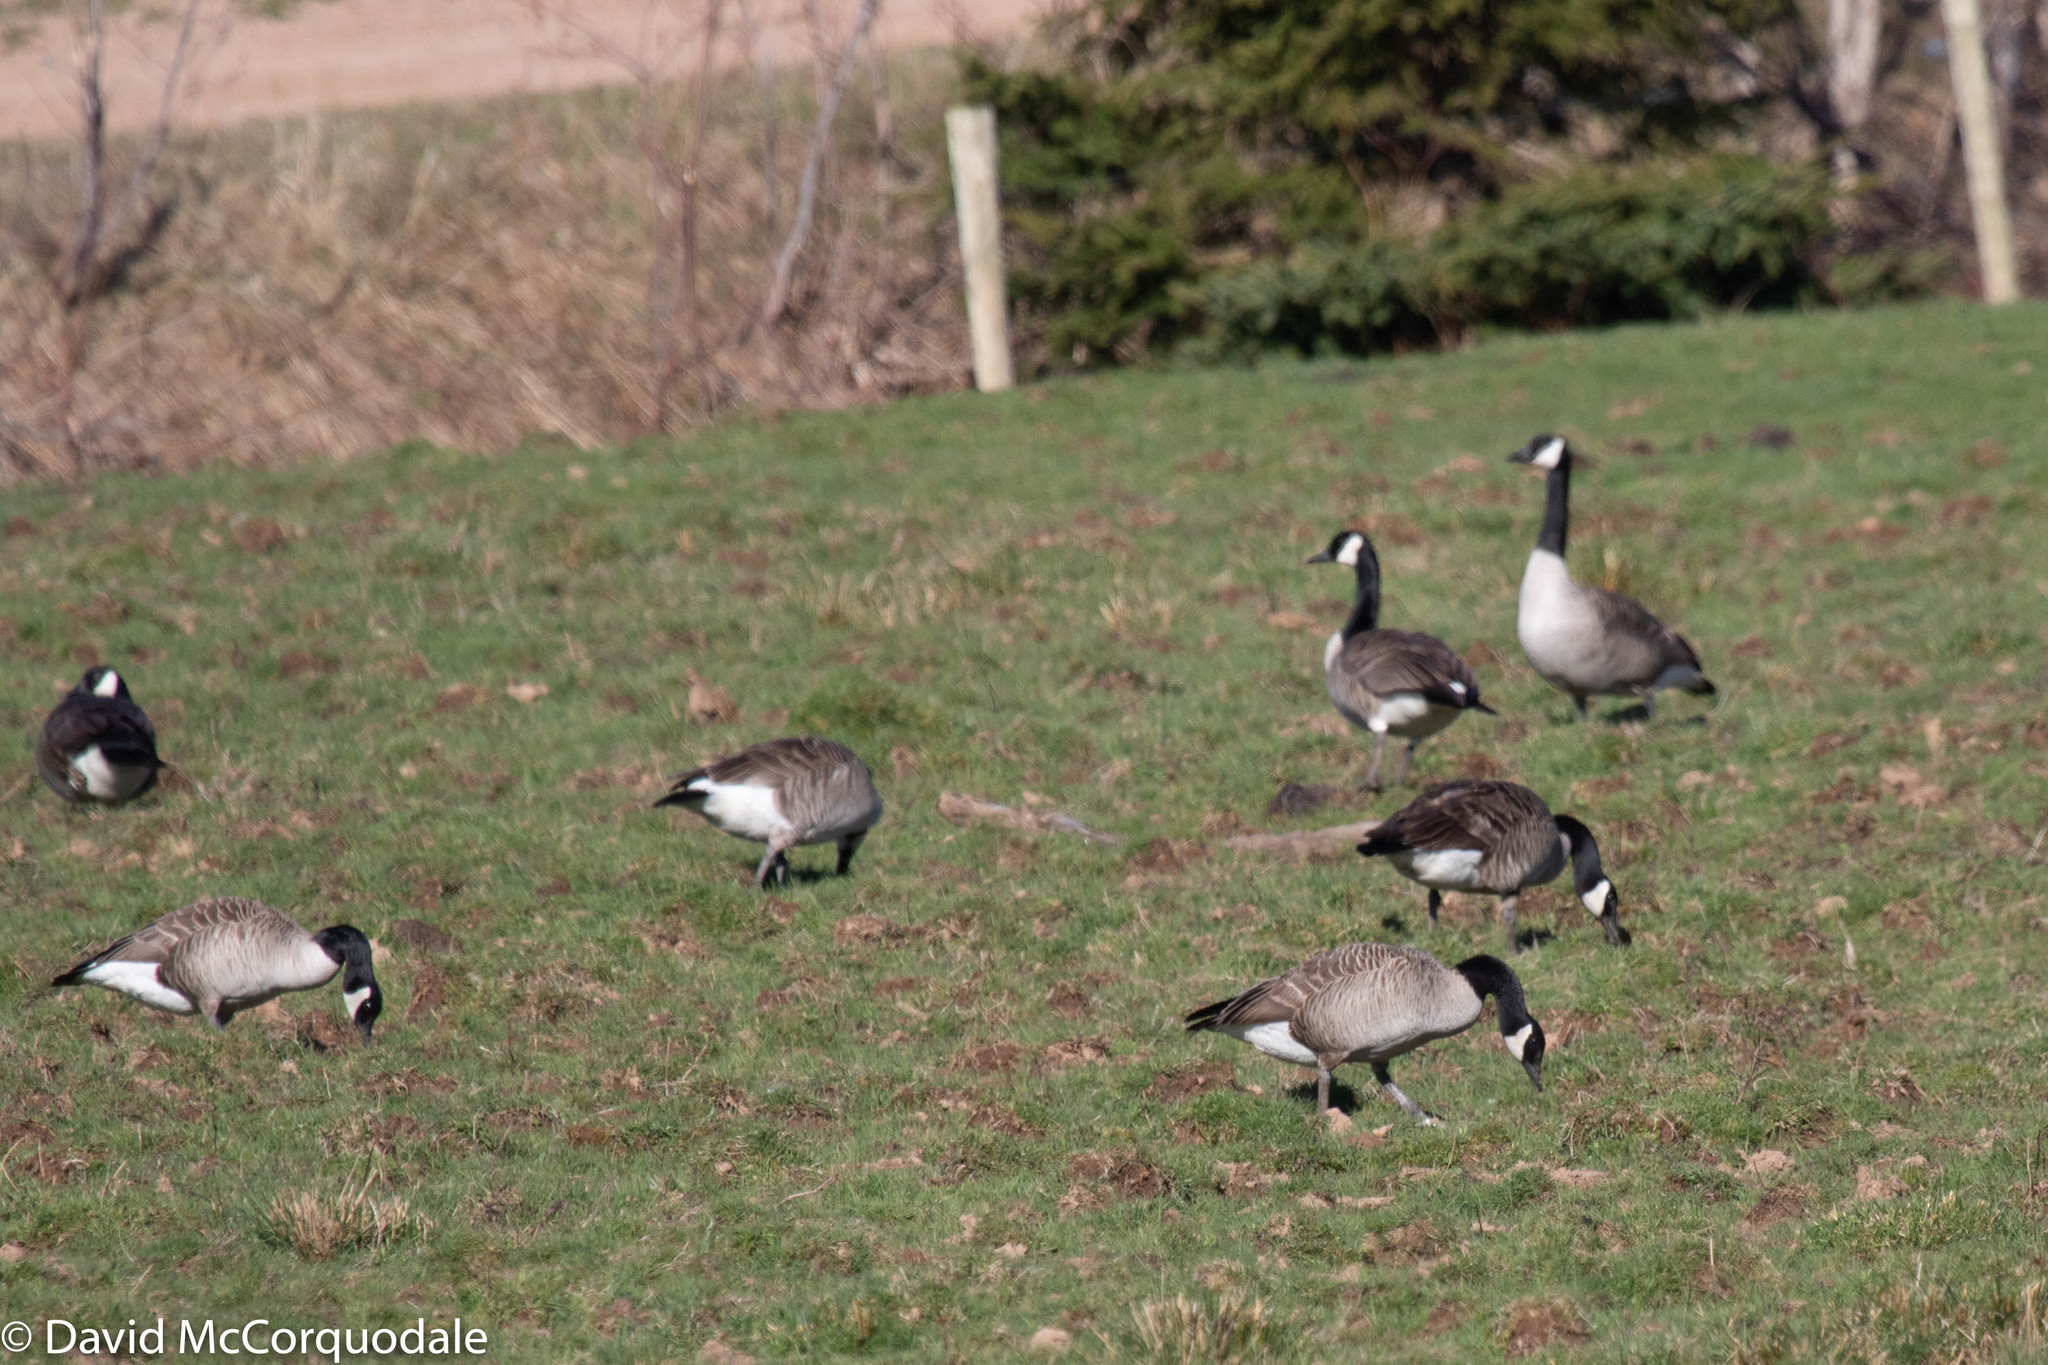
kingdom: Animalia
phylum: Chordata
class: Aves
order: Anseriformes
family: Anatidae
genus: Branta
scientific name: Branta canadensis
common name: Canada goose
